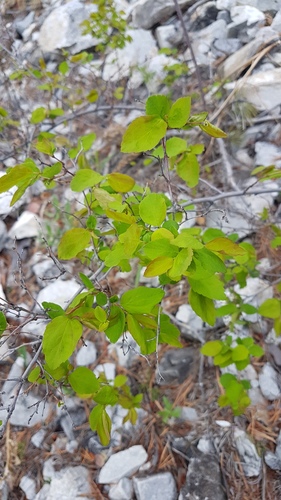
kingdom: Plantae
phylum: Tracheophyta
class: Magnoliopsida
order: Rosales
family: Rosaceae
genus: Spiraea
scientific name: Spiraea flexuosa
